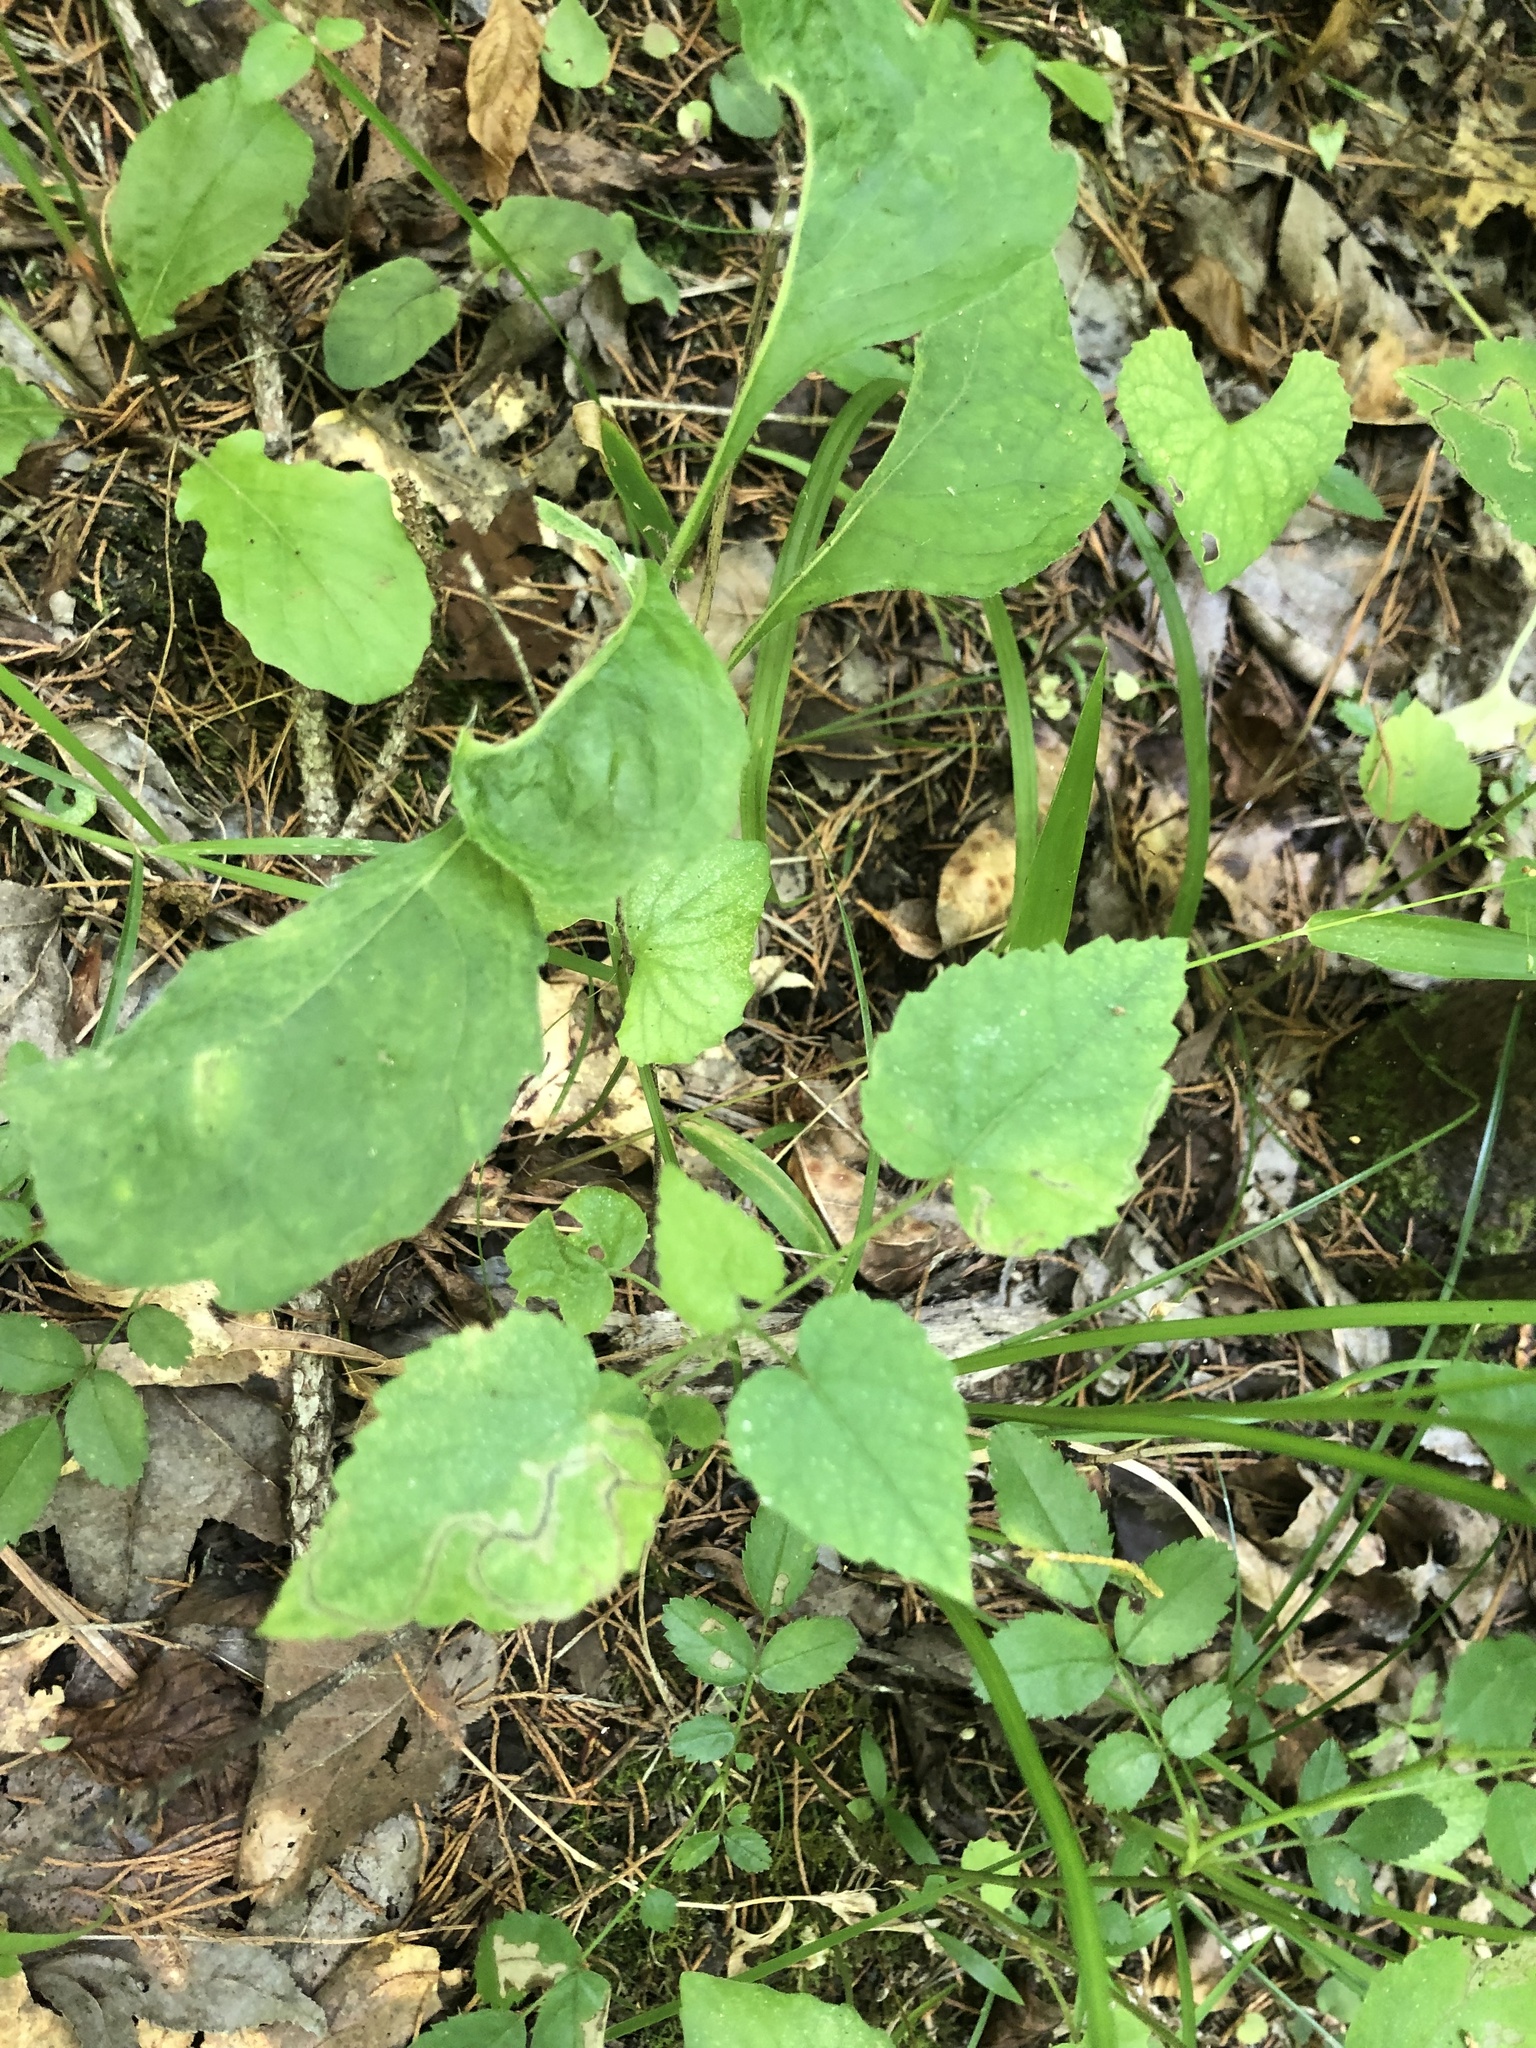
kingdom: Plantae
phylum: Tracheophyta
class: Magnoliopsida
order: Malpighiales
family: Euphorbiaceae
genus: Tragia
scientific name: Tragia cordata
